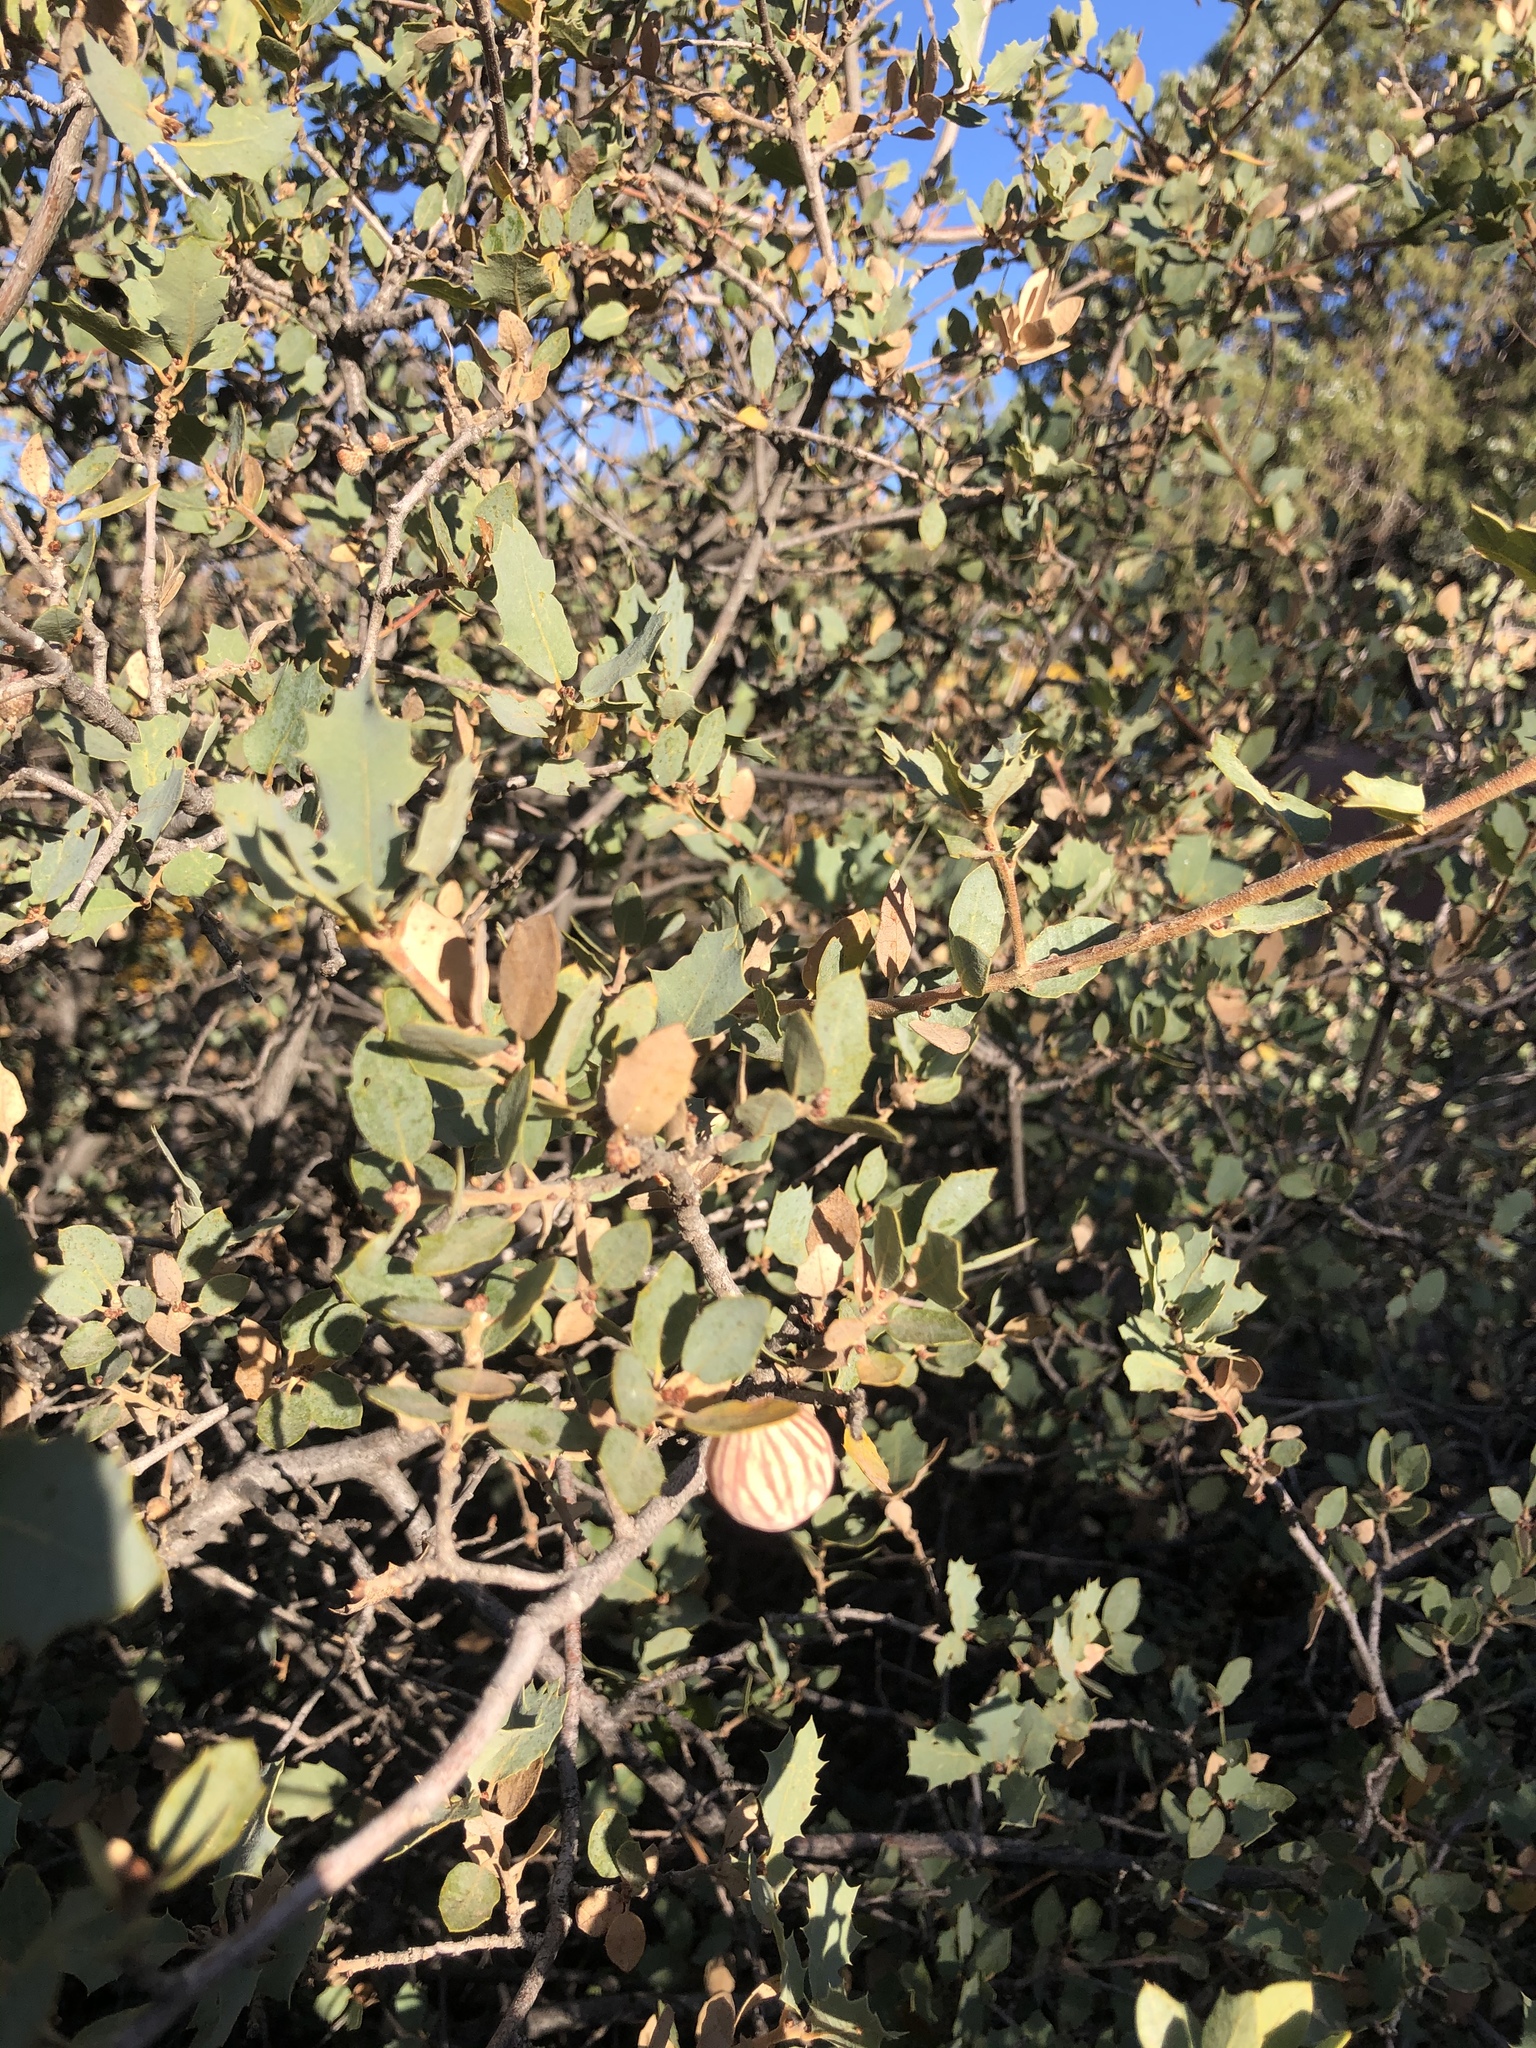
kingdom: Plantae
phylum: Tracheophyta
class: Magnoliopsida
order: Fagales
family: Fagaceae
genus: Quercus
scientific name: Quercus turbinella
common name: Sonoran scrub oak
